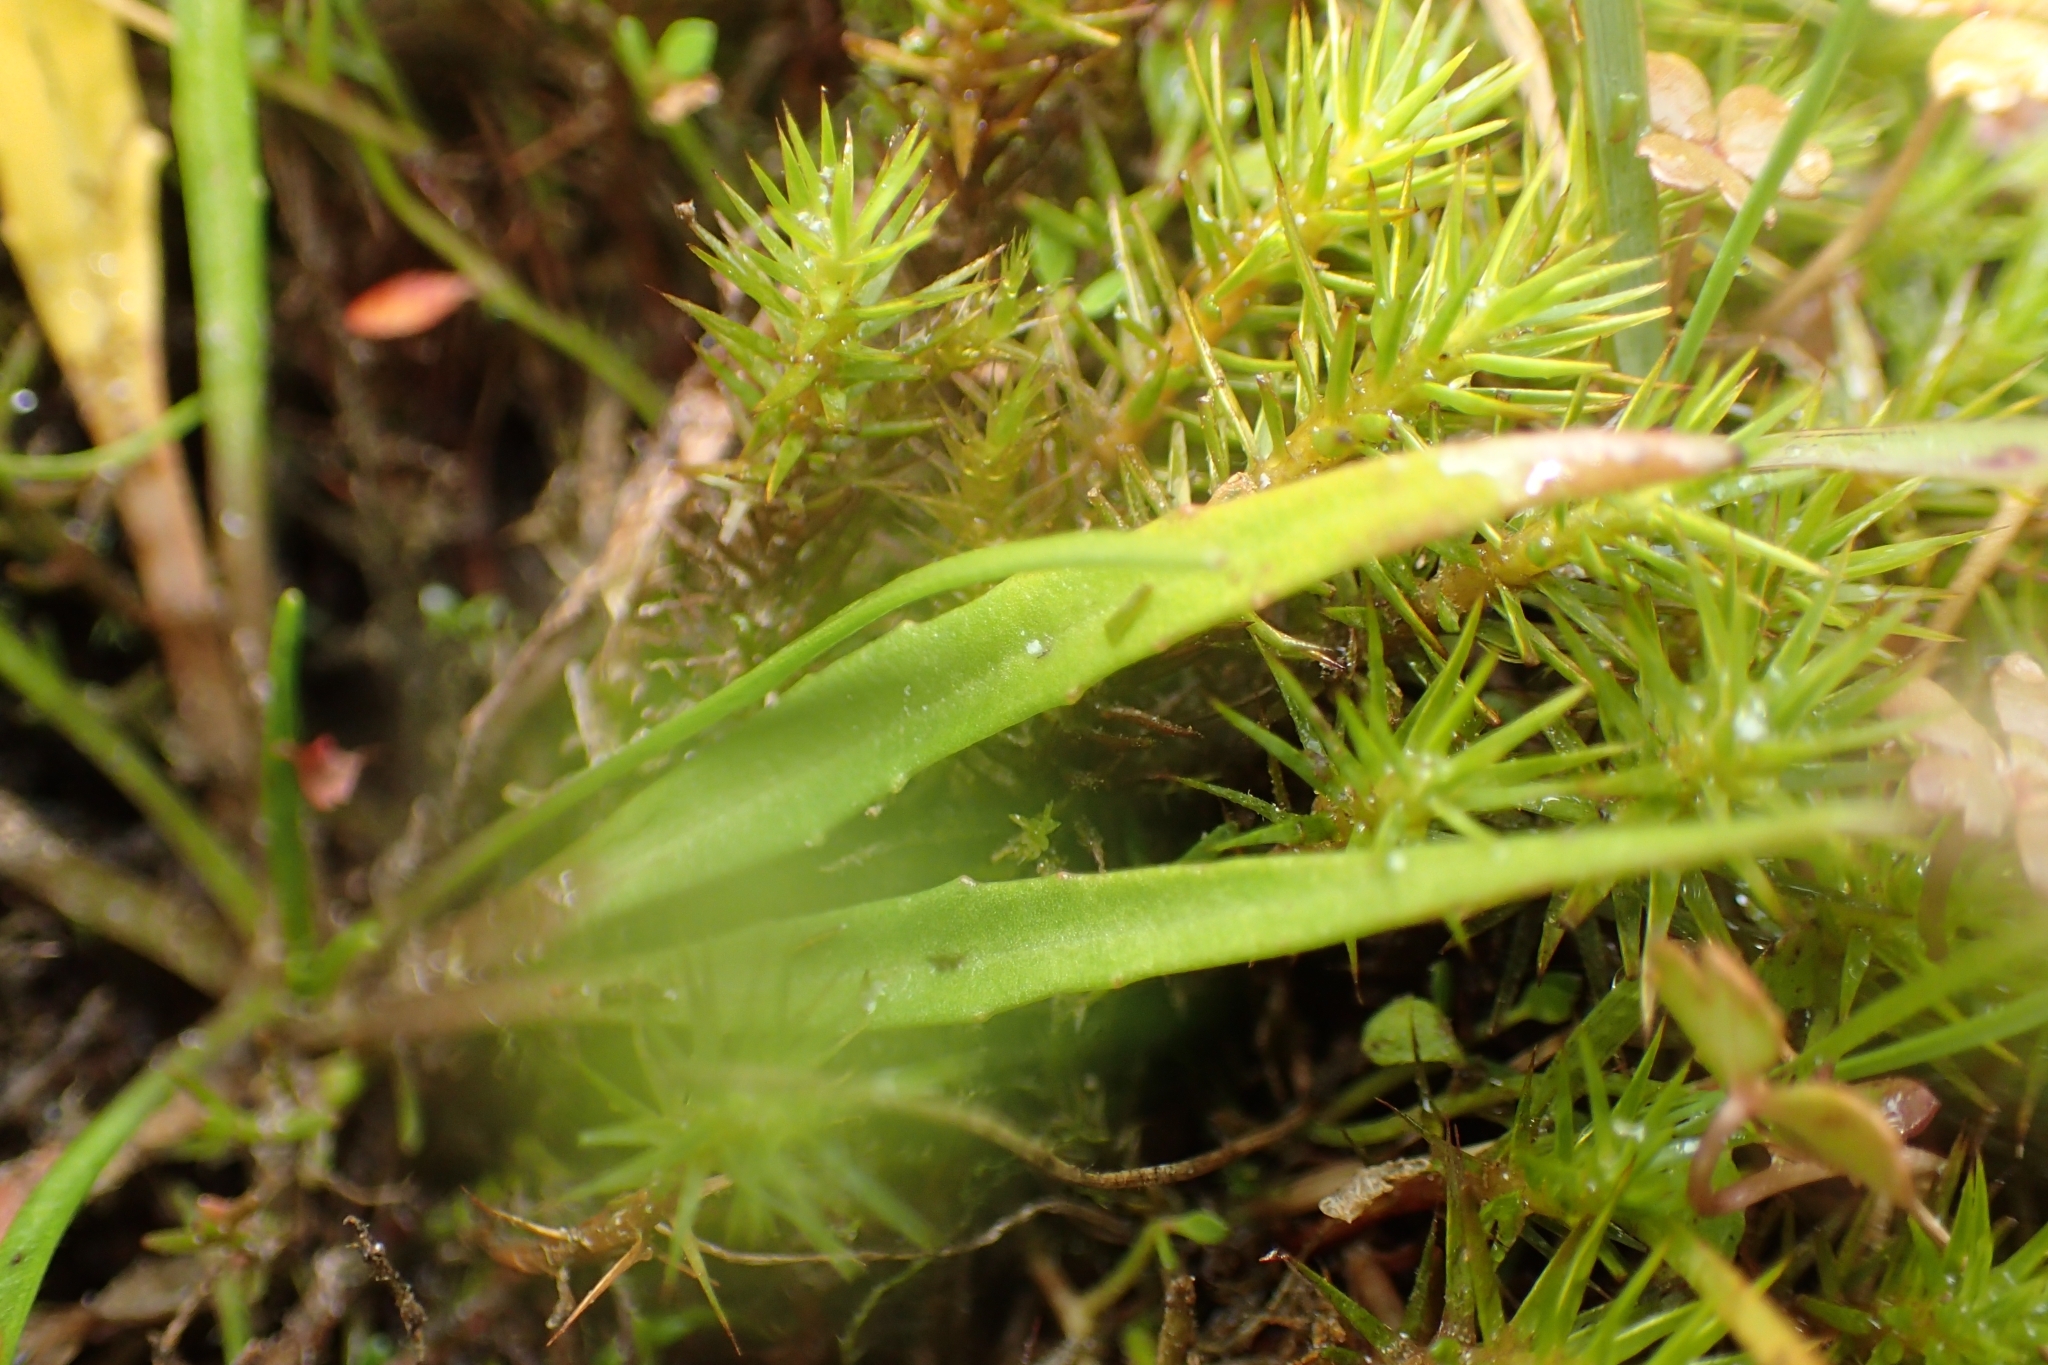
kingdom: Plantae
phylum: Tracheophyta
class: Magnoliopsida
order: Lamiales
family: Plantaginaceae
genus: Plantago
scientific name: Plantago triandra
